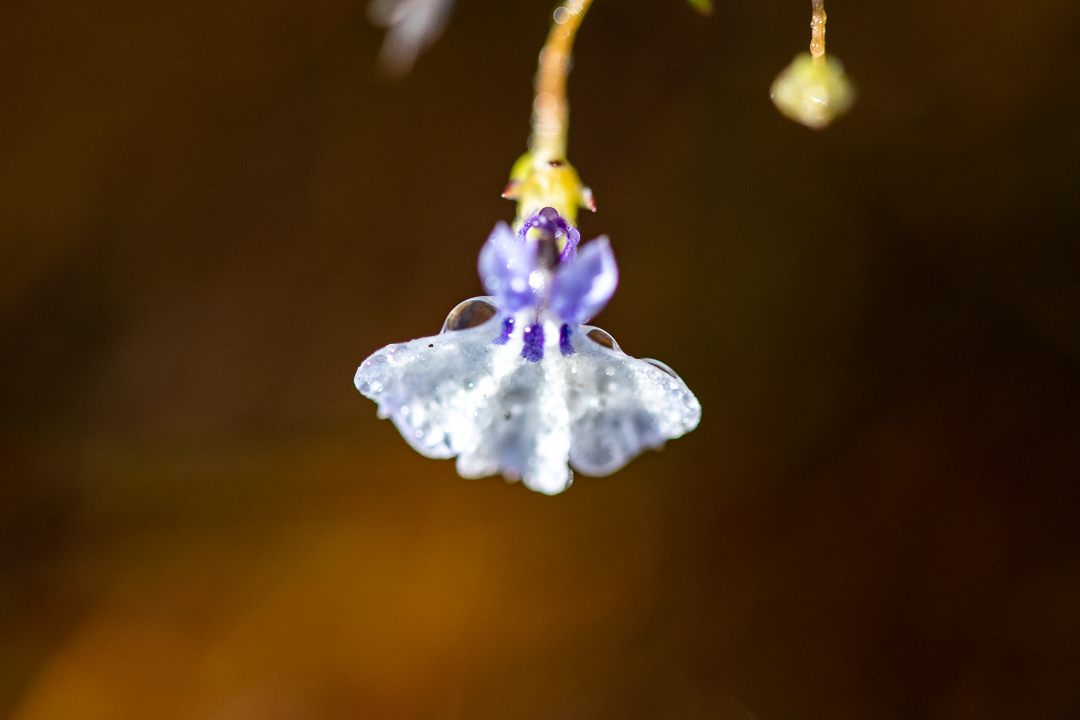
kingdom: Plantae
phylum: Tracheophyta
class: Magnoliopsida
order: Asterales
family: Campanulaceae
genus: Lobelia
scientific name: Lobelia setacea
